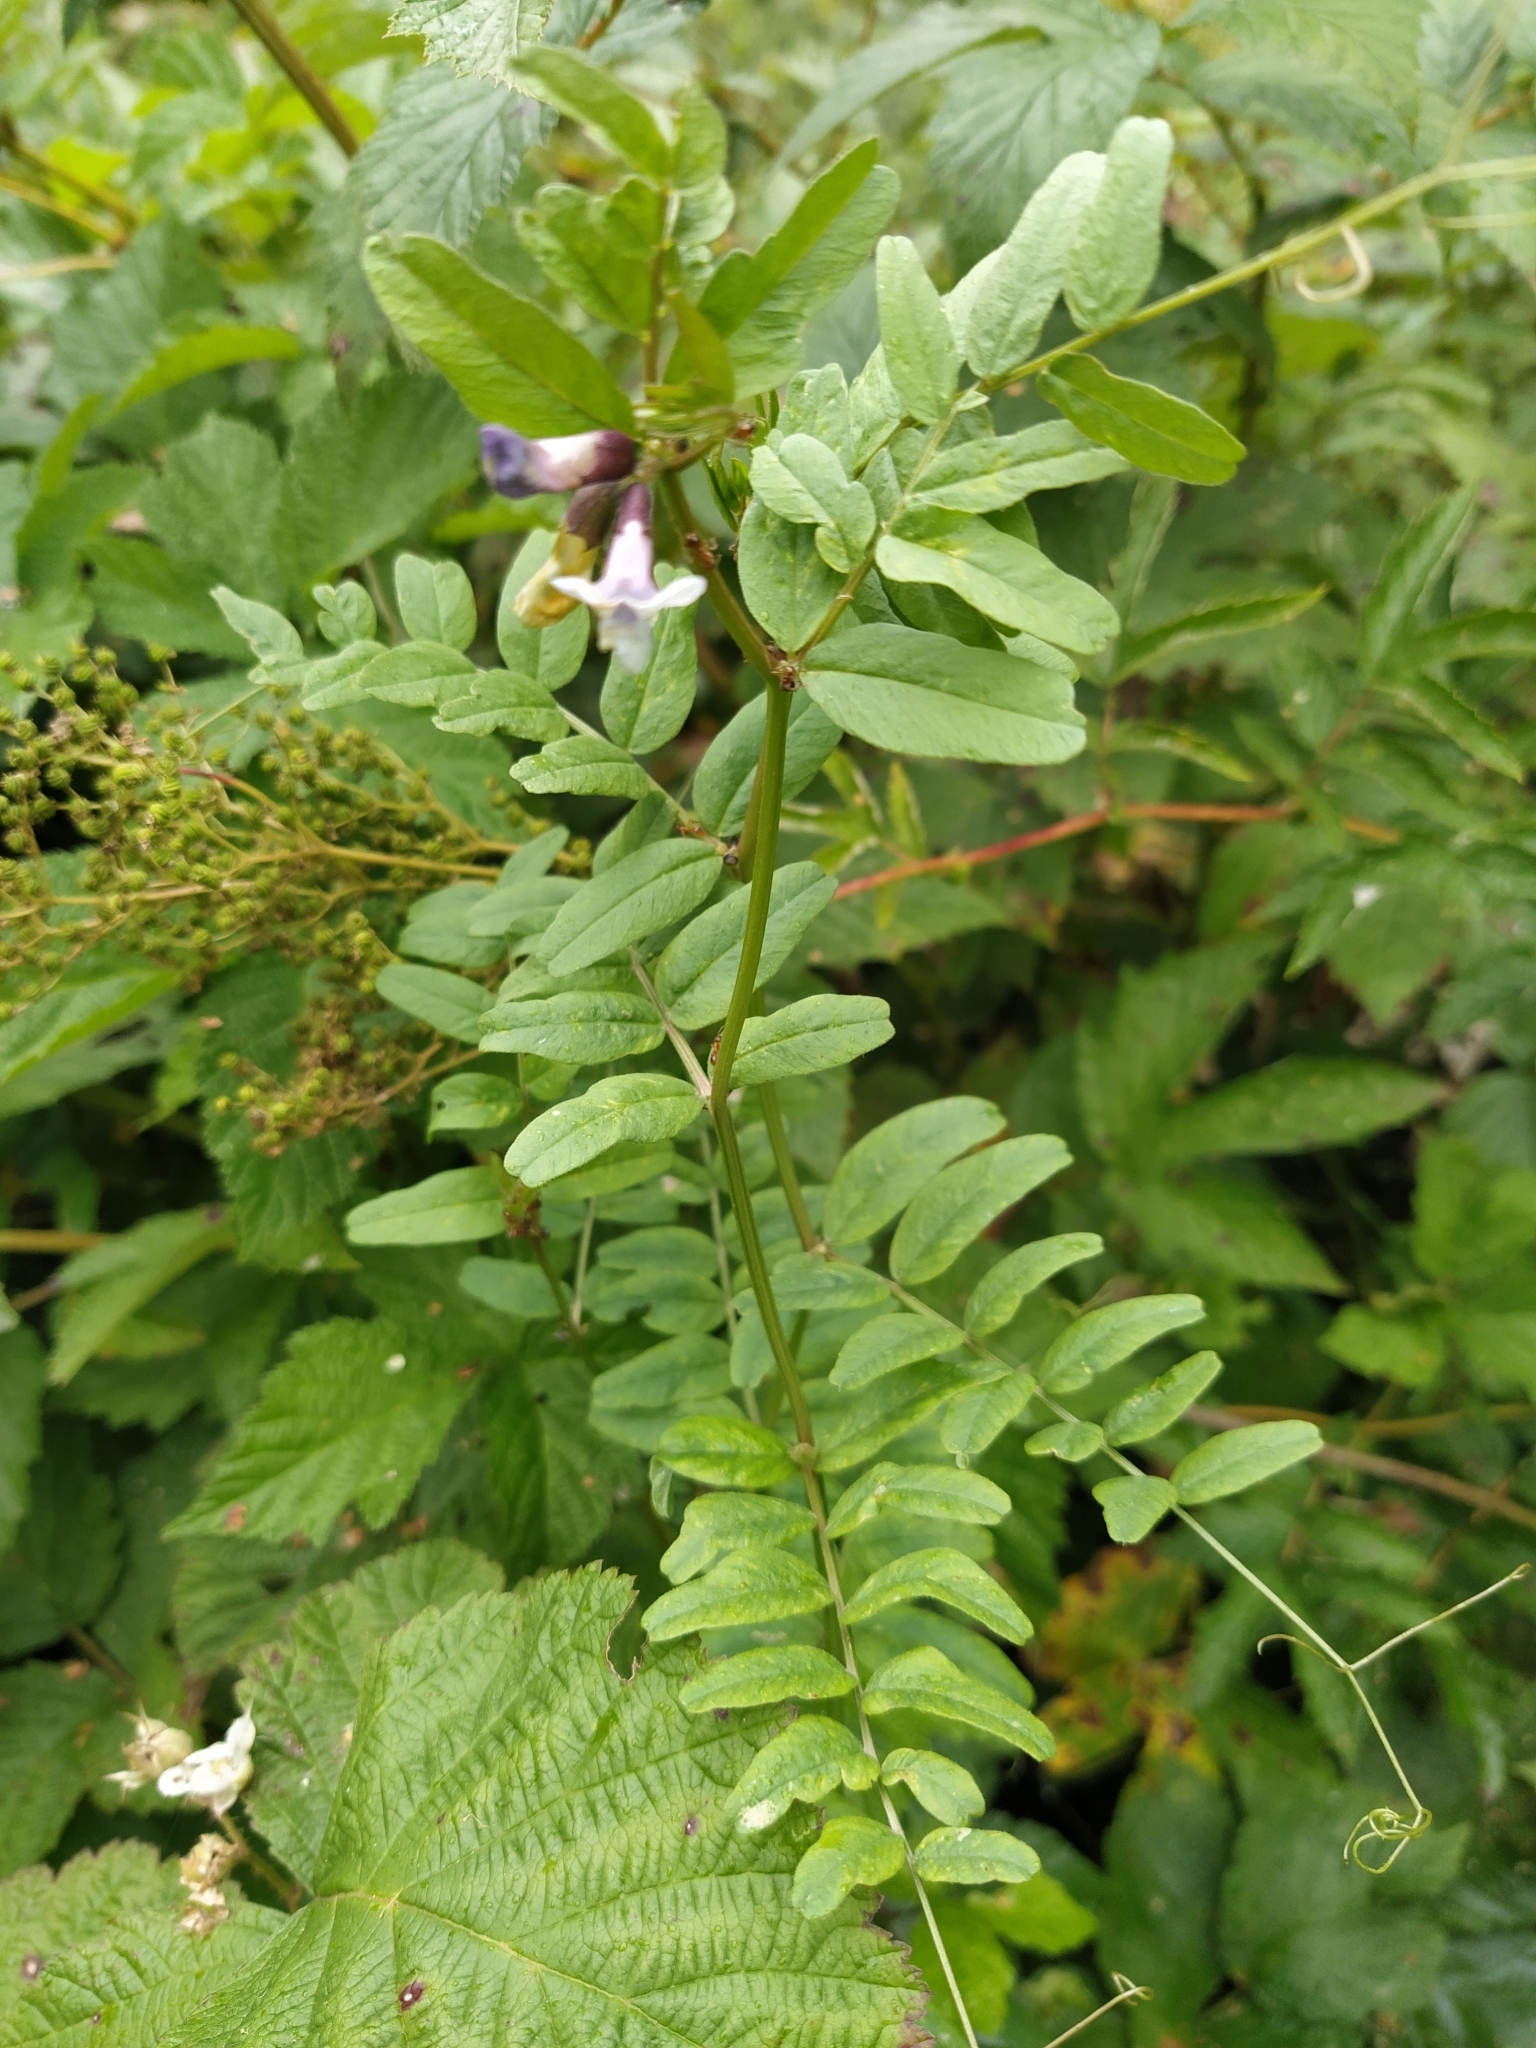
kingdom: Plantae
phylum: Tracheophyta
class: Magnoliopsida
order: Fabales
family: Fabaceae
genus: Vicia
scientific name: Vicia sepium
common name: Bush vetch
